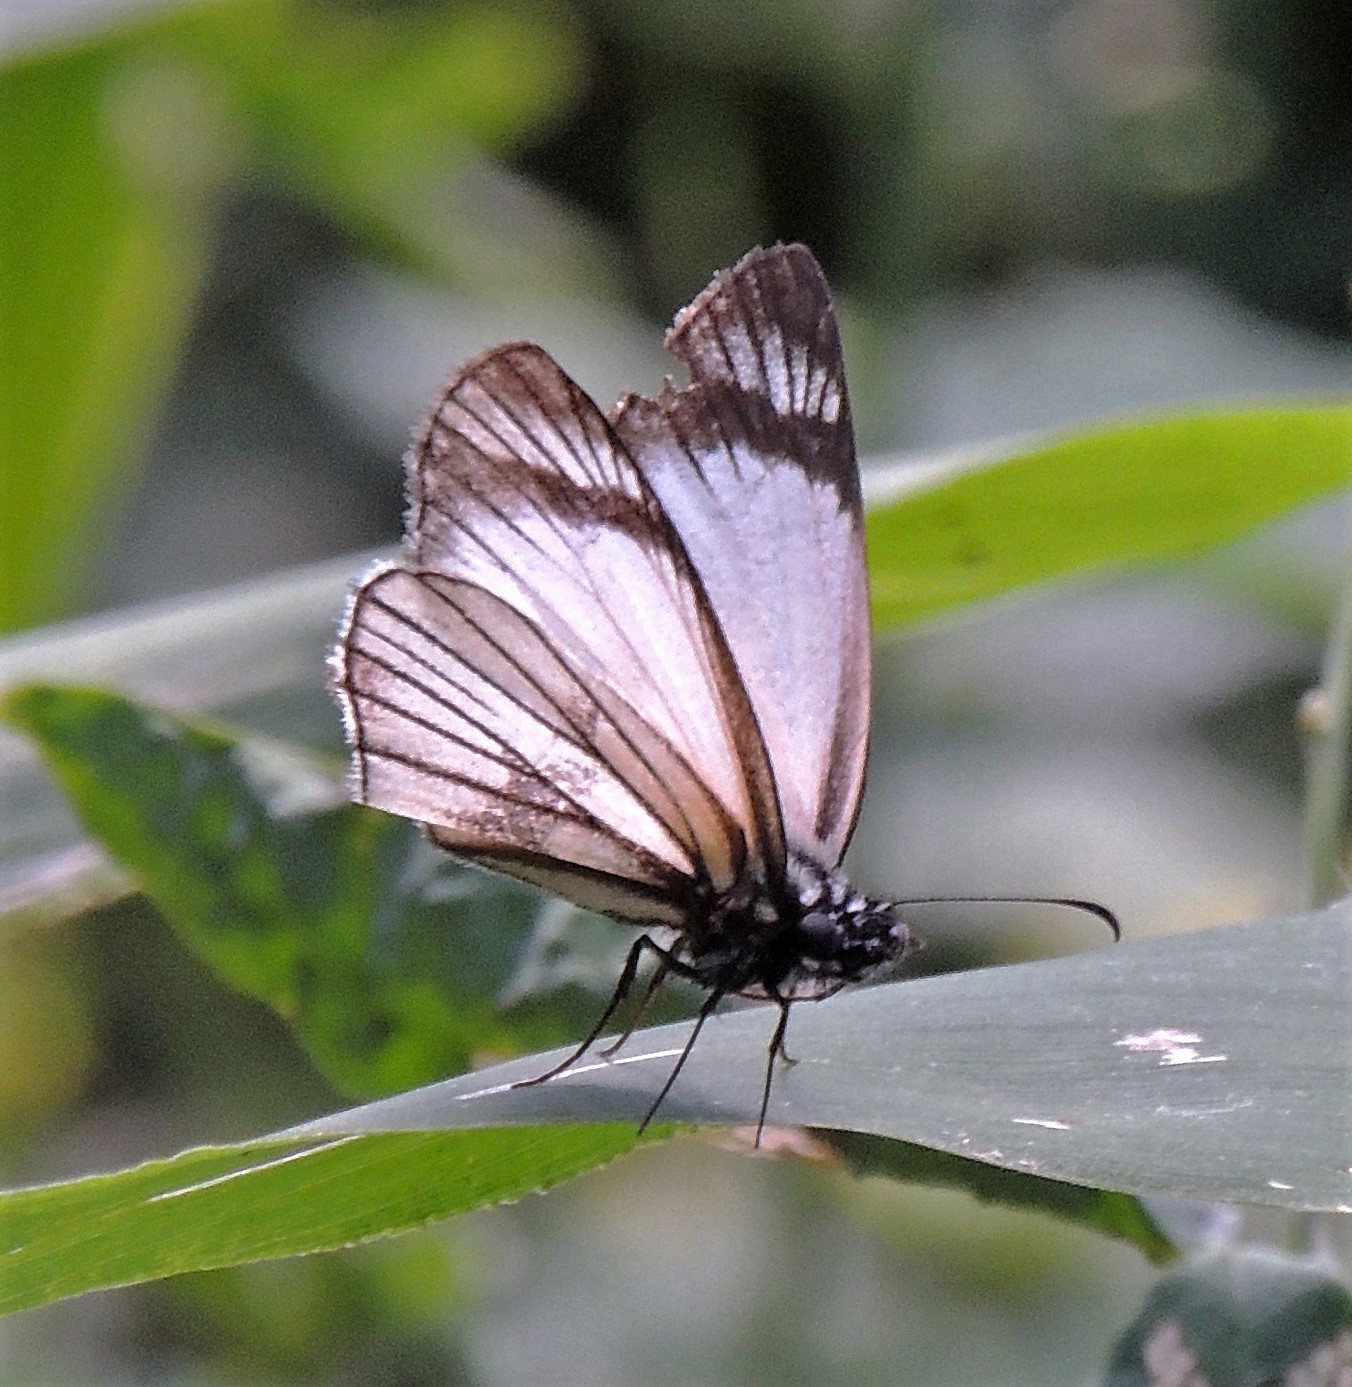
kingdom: Animalia
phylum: Arthropoda
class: Insecta
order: Lepidoptera
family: Hesperiidae
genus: Heliopetes
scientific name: Heliopetes alana
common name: Alana white-skipper
